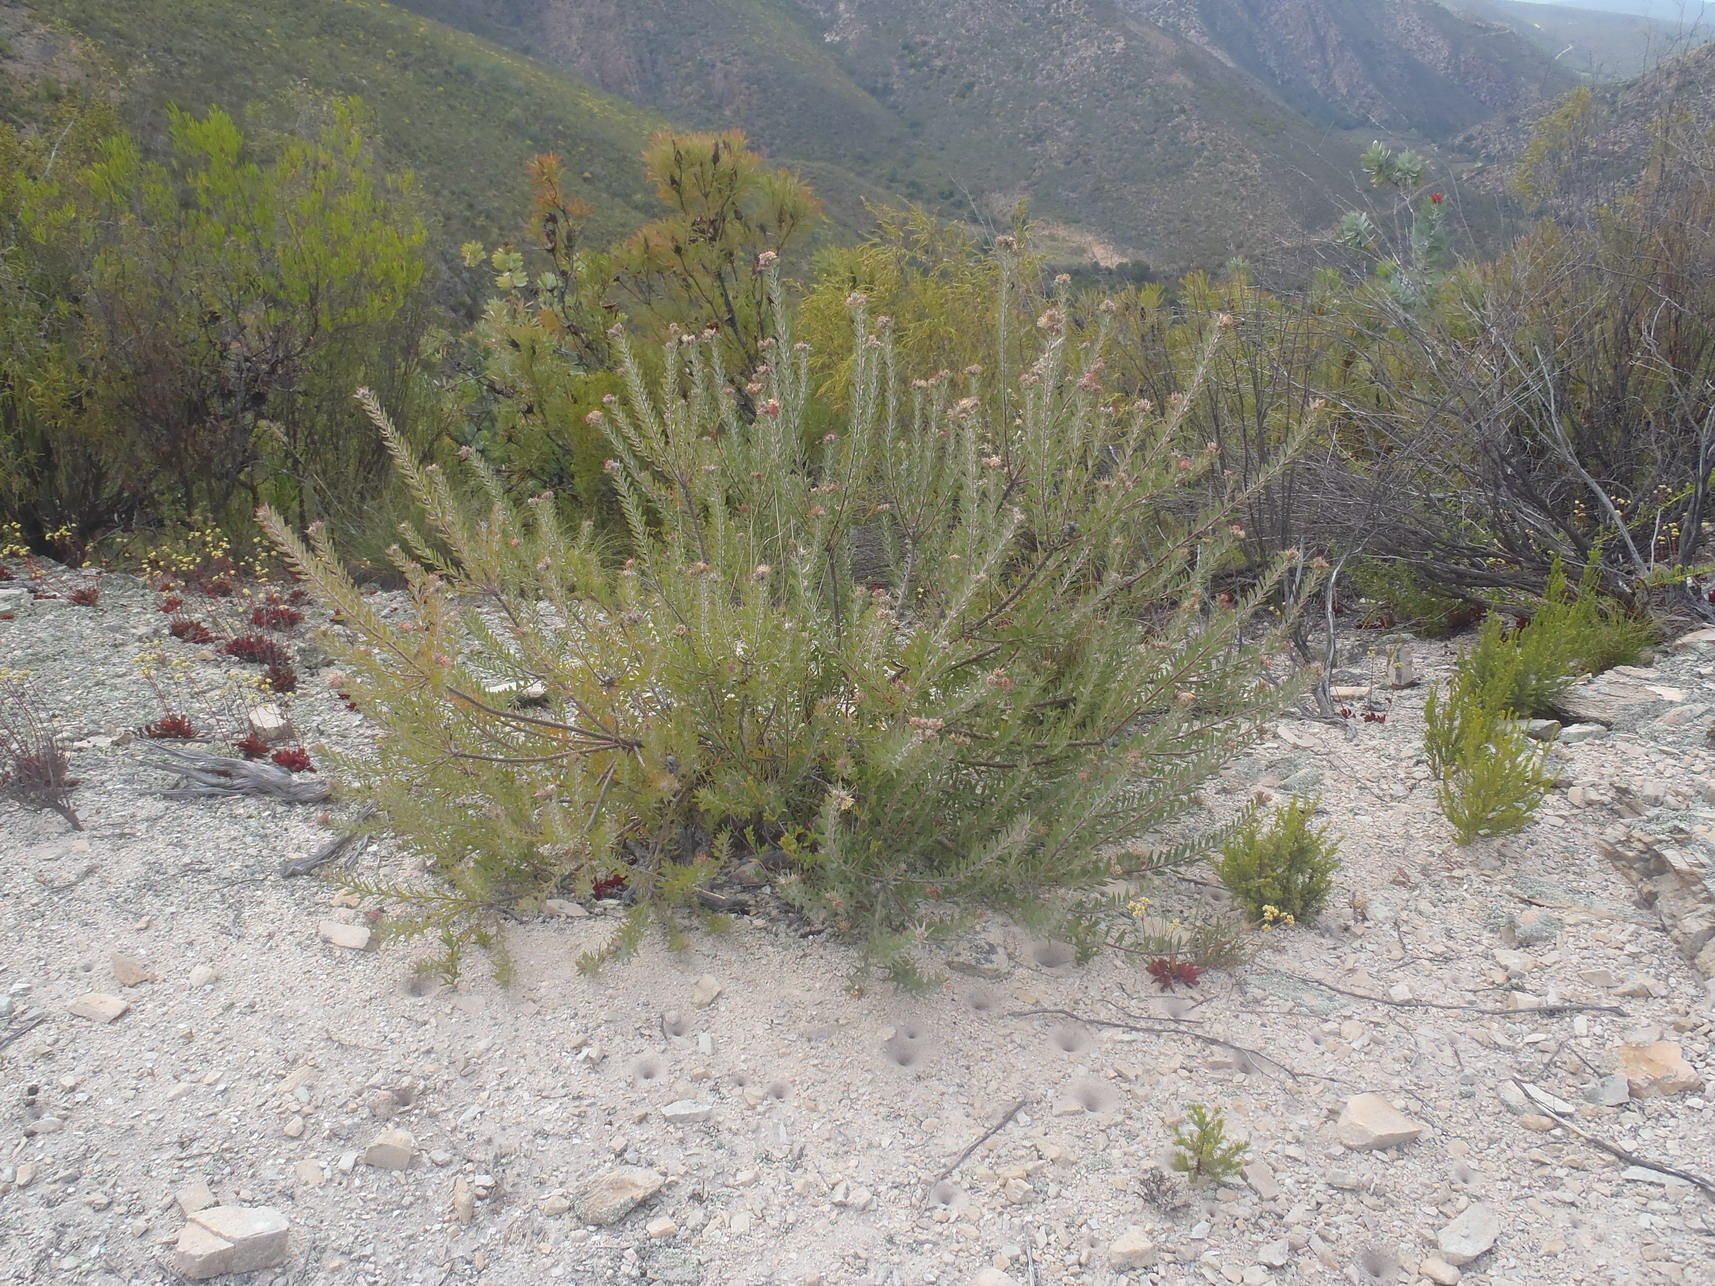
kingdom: Plantae
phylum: Tracheophyta
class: Magnoliopsida
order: Proteales
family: Proteaceae
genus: Leucospermum
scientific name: Leucospermum wittebergense
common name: Swartberg pincushion
